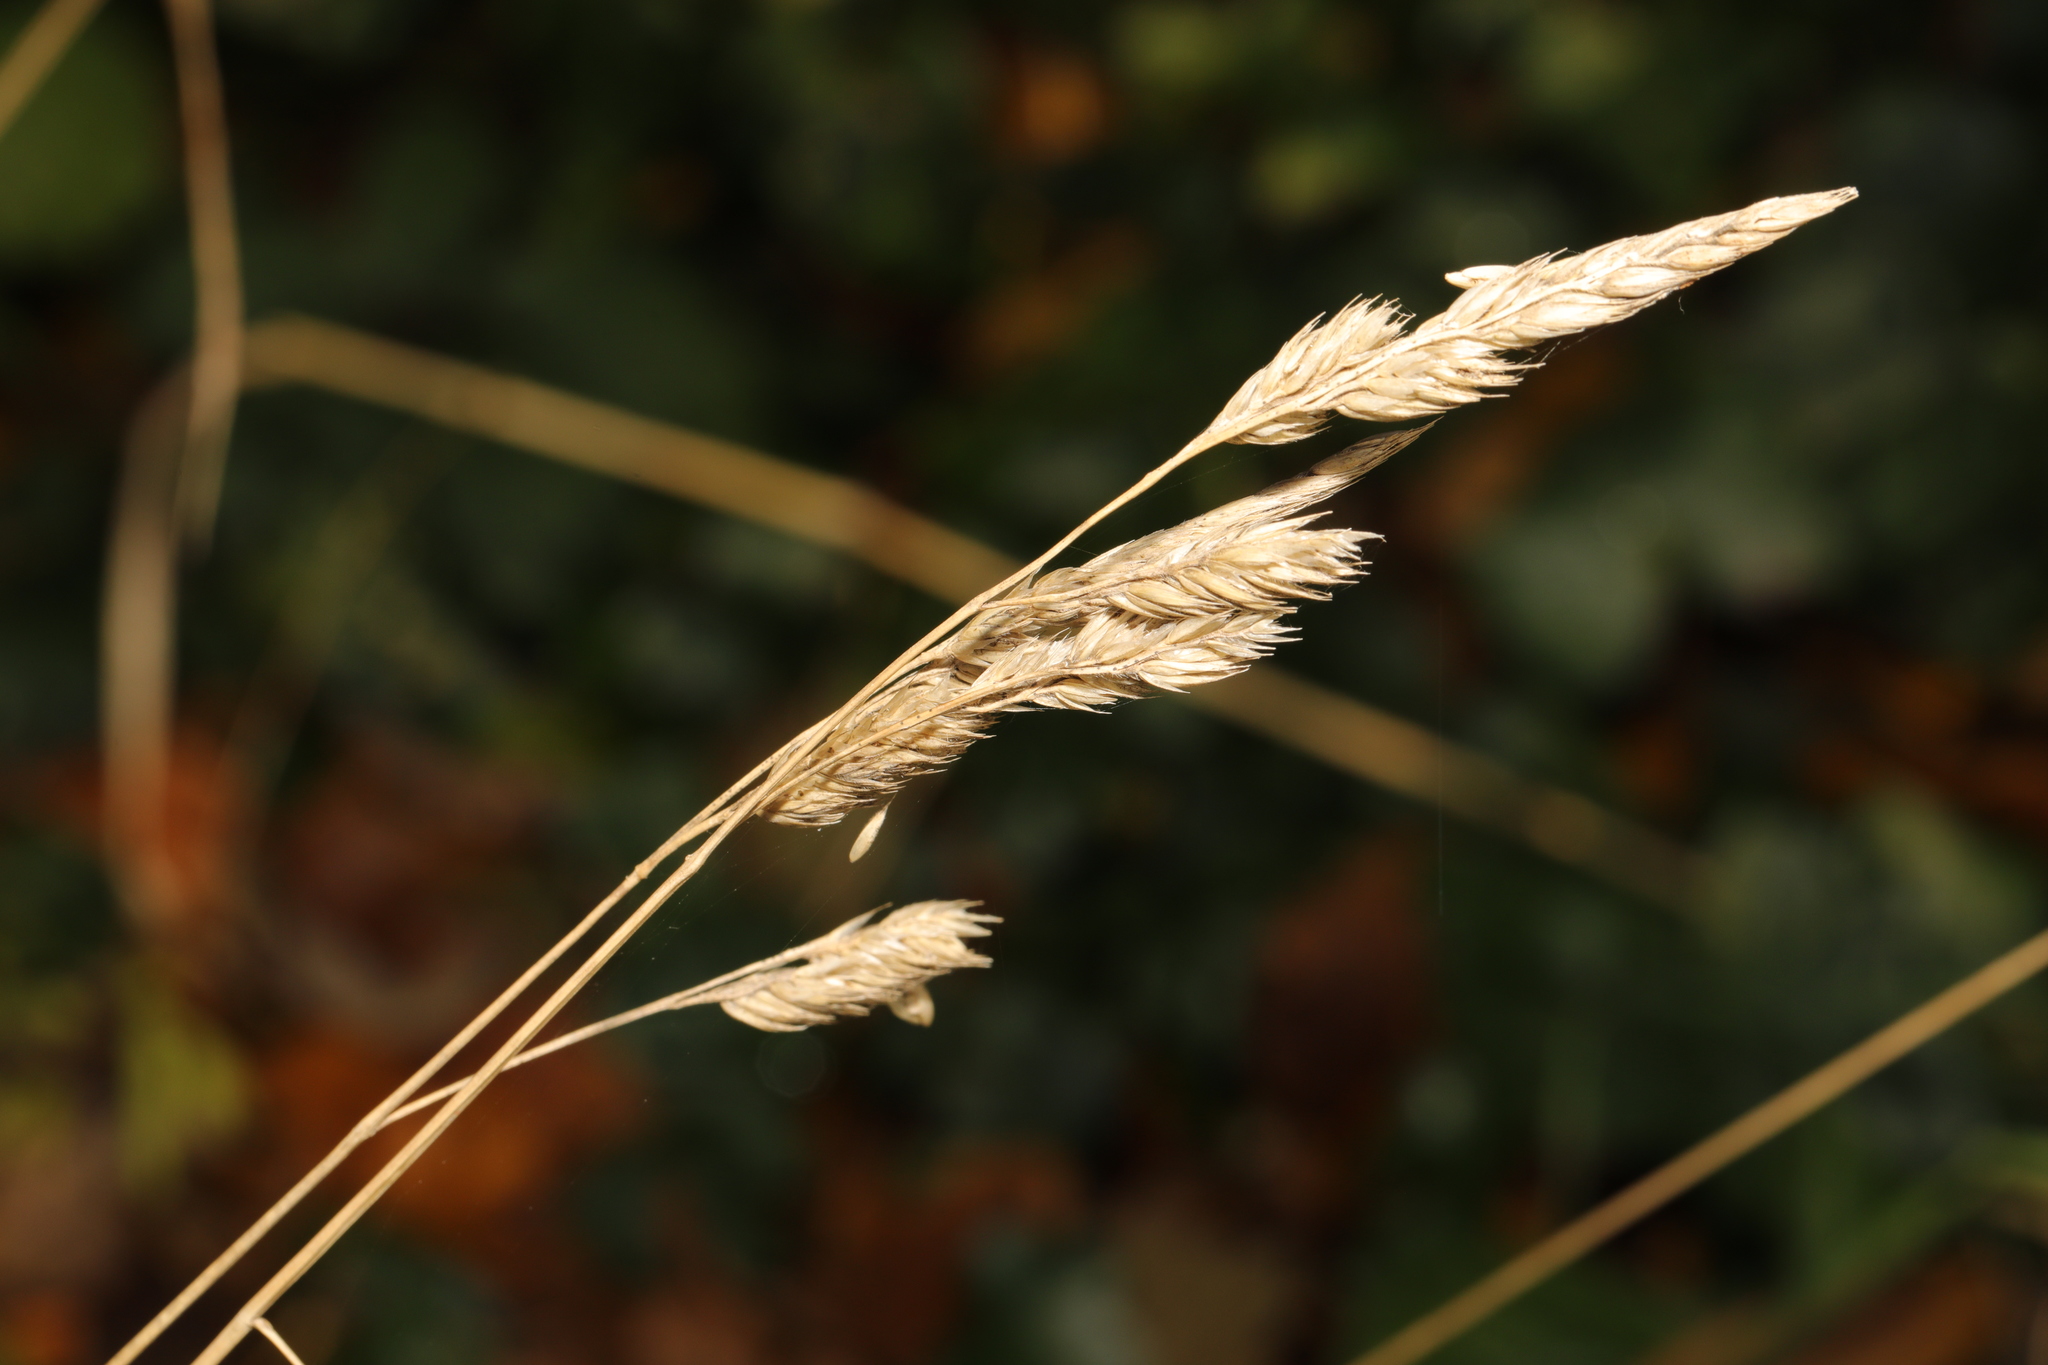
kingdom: Plantae
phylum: Tracheophyta
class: Liliopsida
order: Poales
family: Poaceae
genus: Dactylis
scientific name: Dactylis glomerata
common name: Orchardgrass
